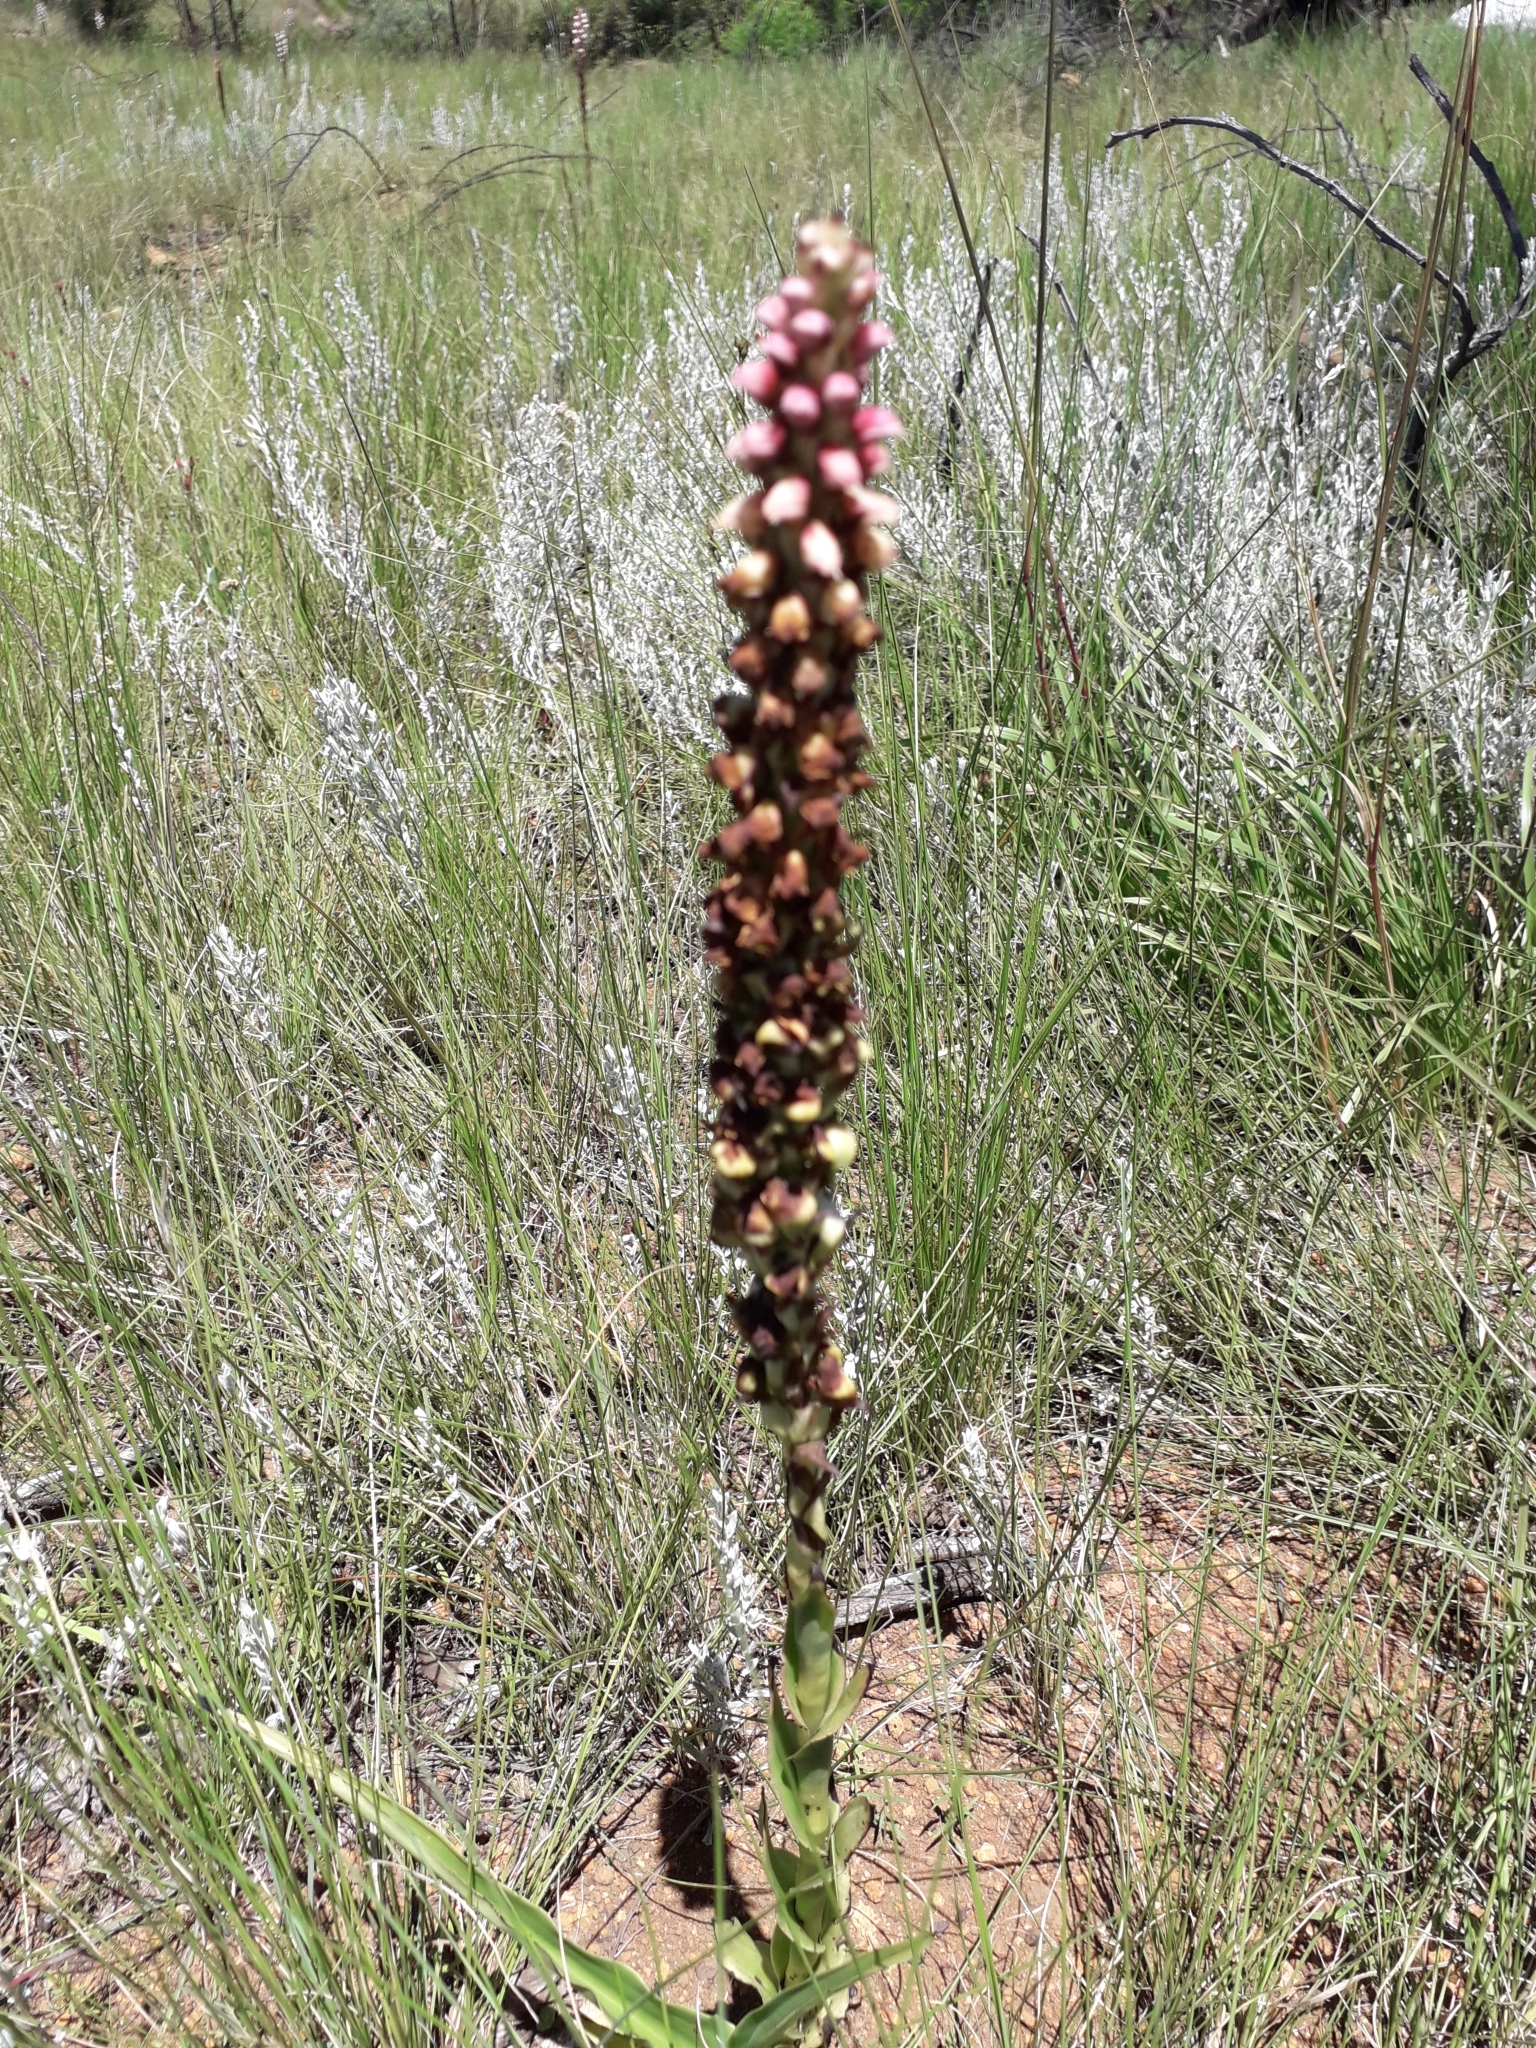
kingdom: Plantae
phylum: Tracheophyta
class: Liliopsida
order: Asparagales
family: Orchidaceae
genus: Disa
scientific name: Disa versicolor
